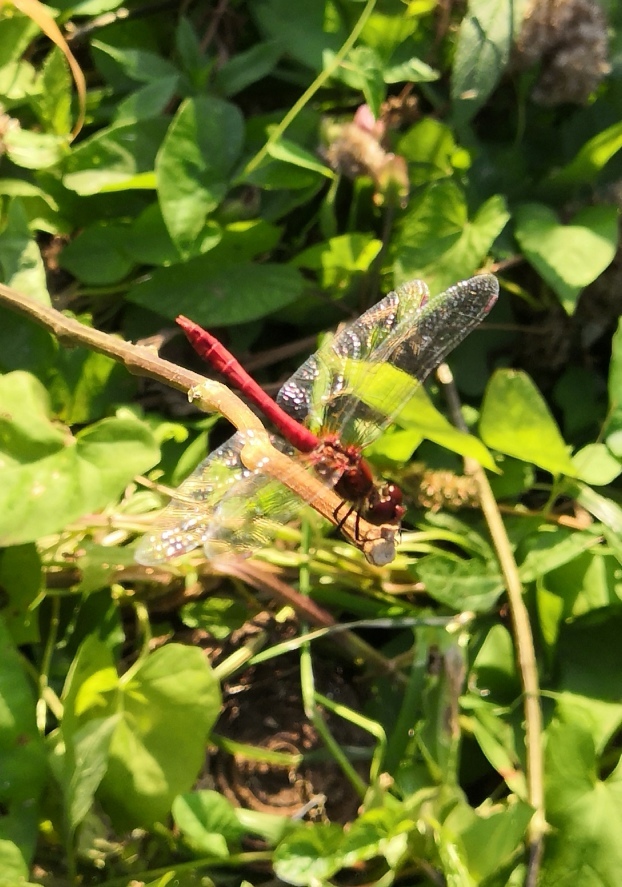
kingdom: Animalia
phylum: Arthropoda
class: Insecta
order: Odonata
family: Libellulidae
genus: Sympetrum
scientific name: Sympetrum sanguineum
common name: Ruddy darter
